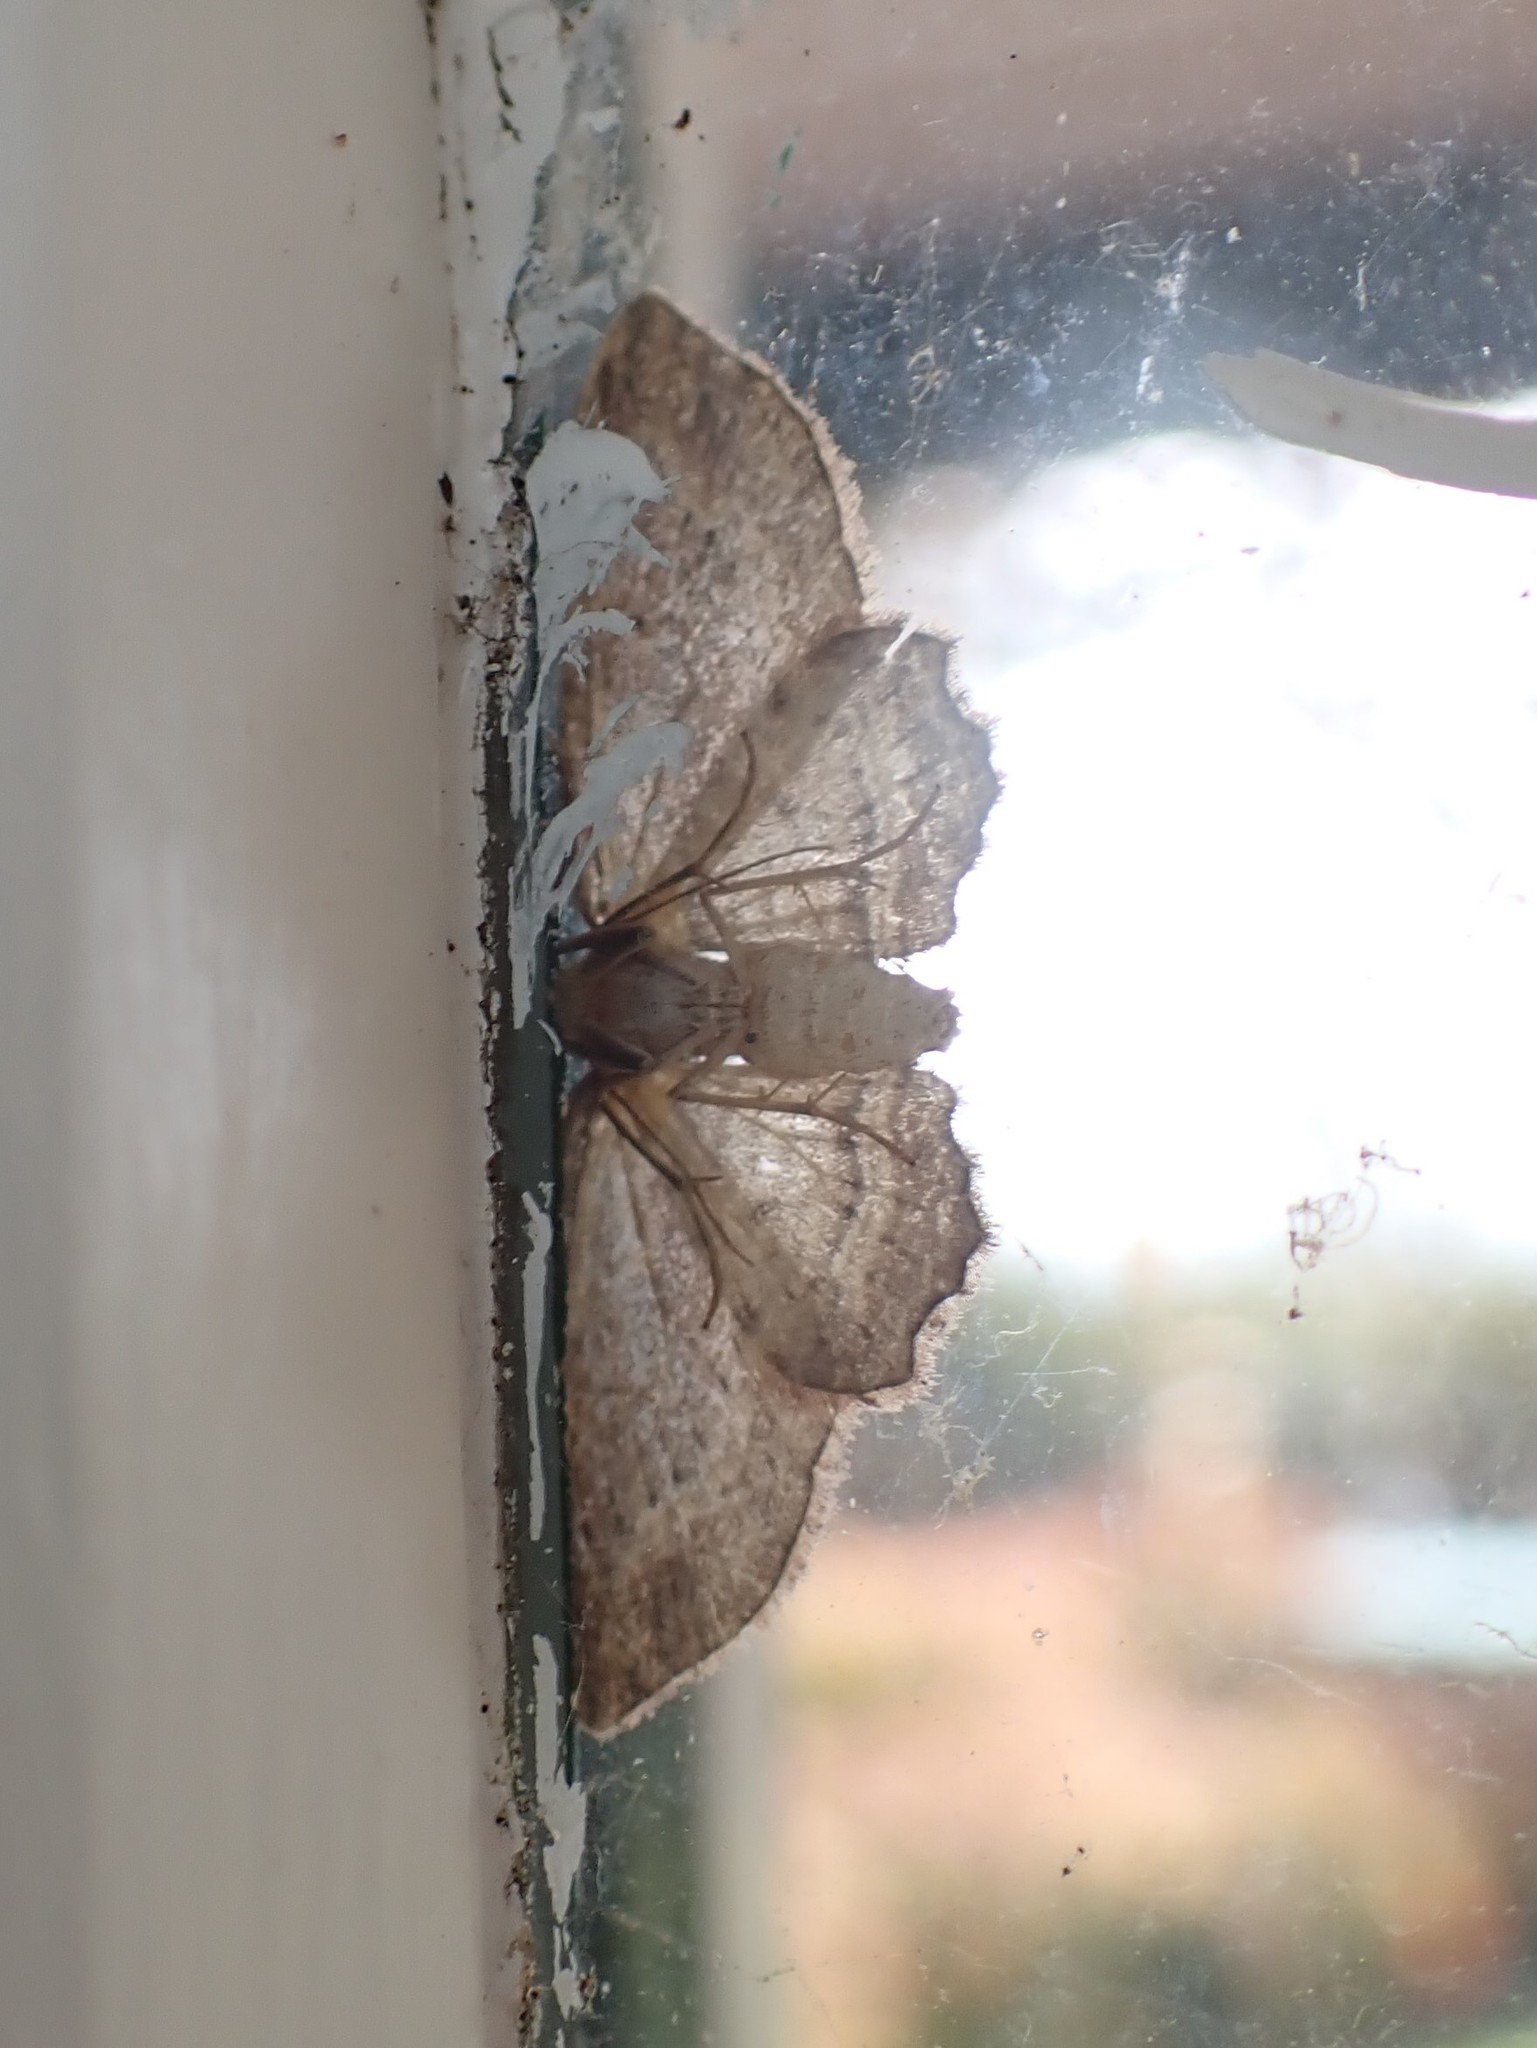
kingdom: Animalia
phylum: Arthropoda
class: Insecta
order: Lepidoptera
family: Geometridae
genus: Chloroclystis
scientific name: Chloroclystis filata
